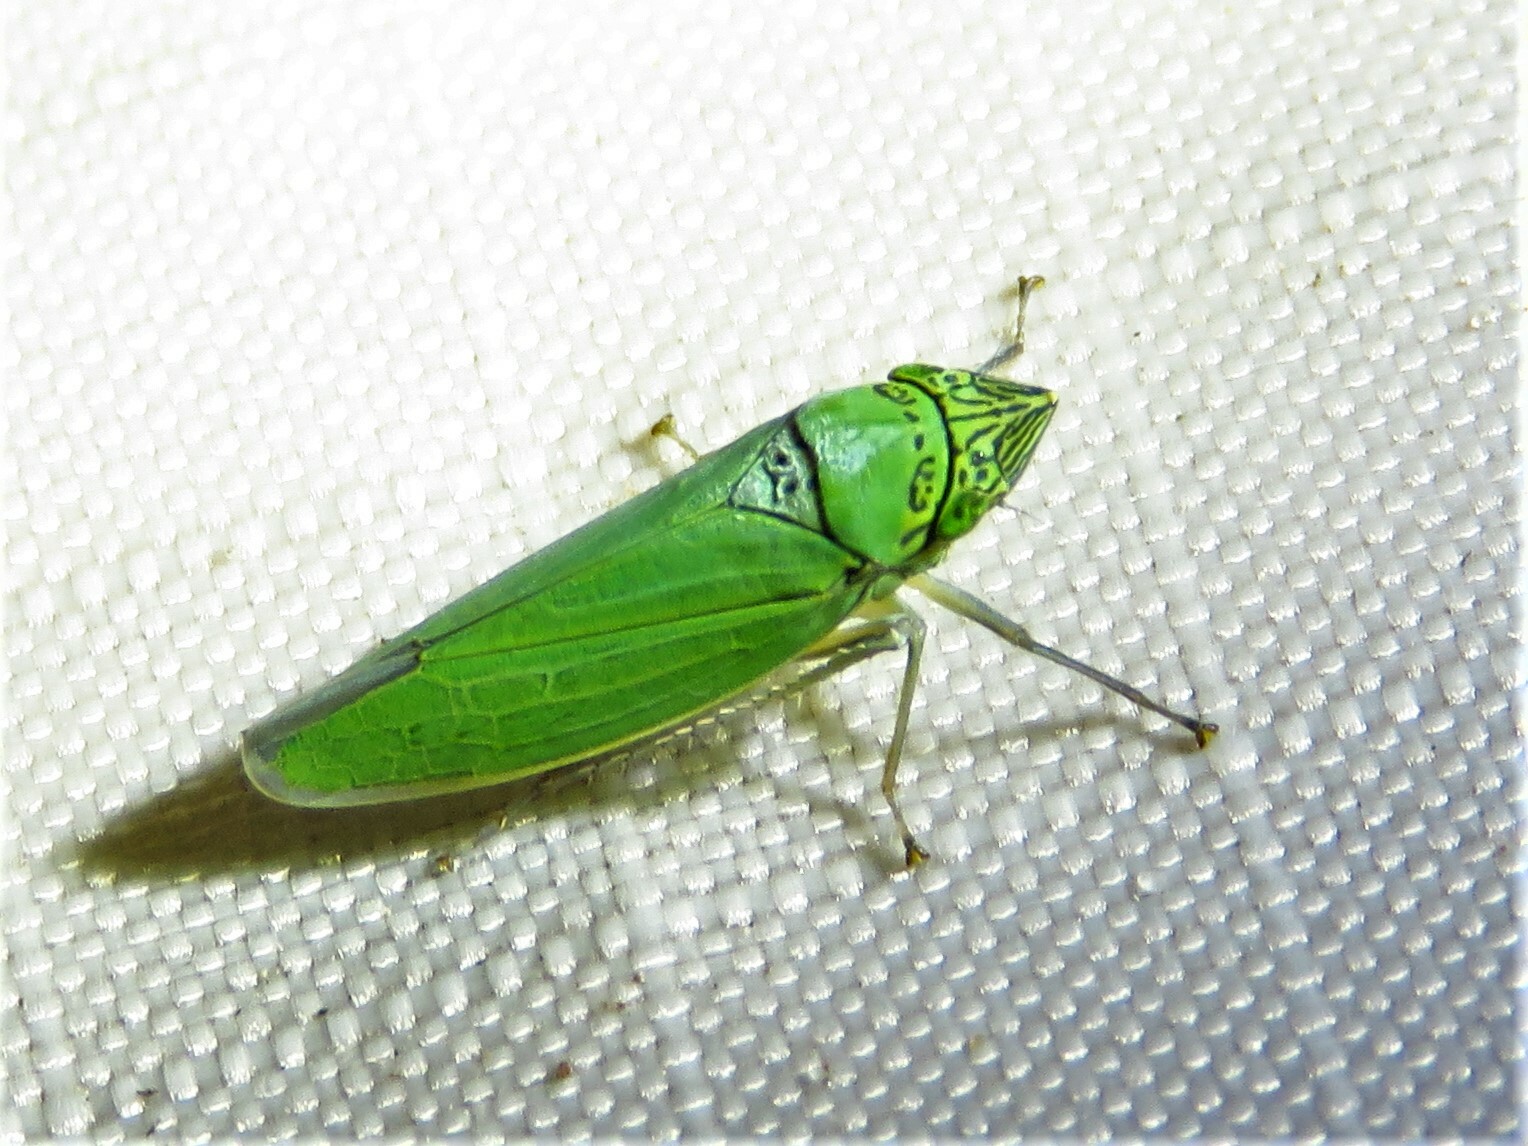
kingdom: Animalia
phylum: Arthropoda
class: Insecta
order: Hemiptera
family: Cicadellidae
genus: Draeculacephala
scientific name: Draeculacephala inscripta
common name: Leafhopper
